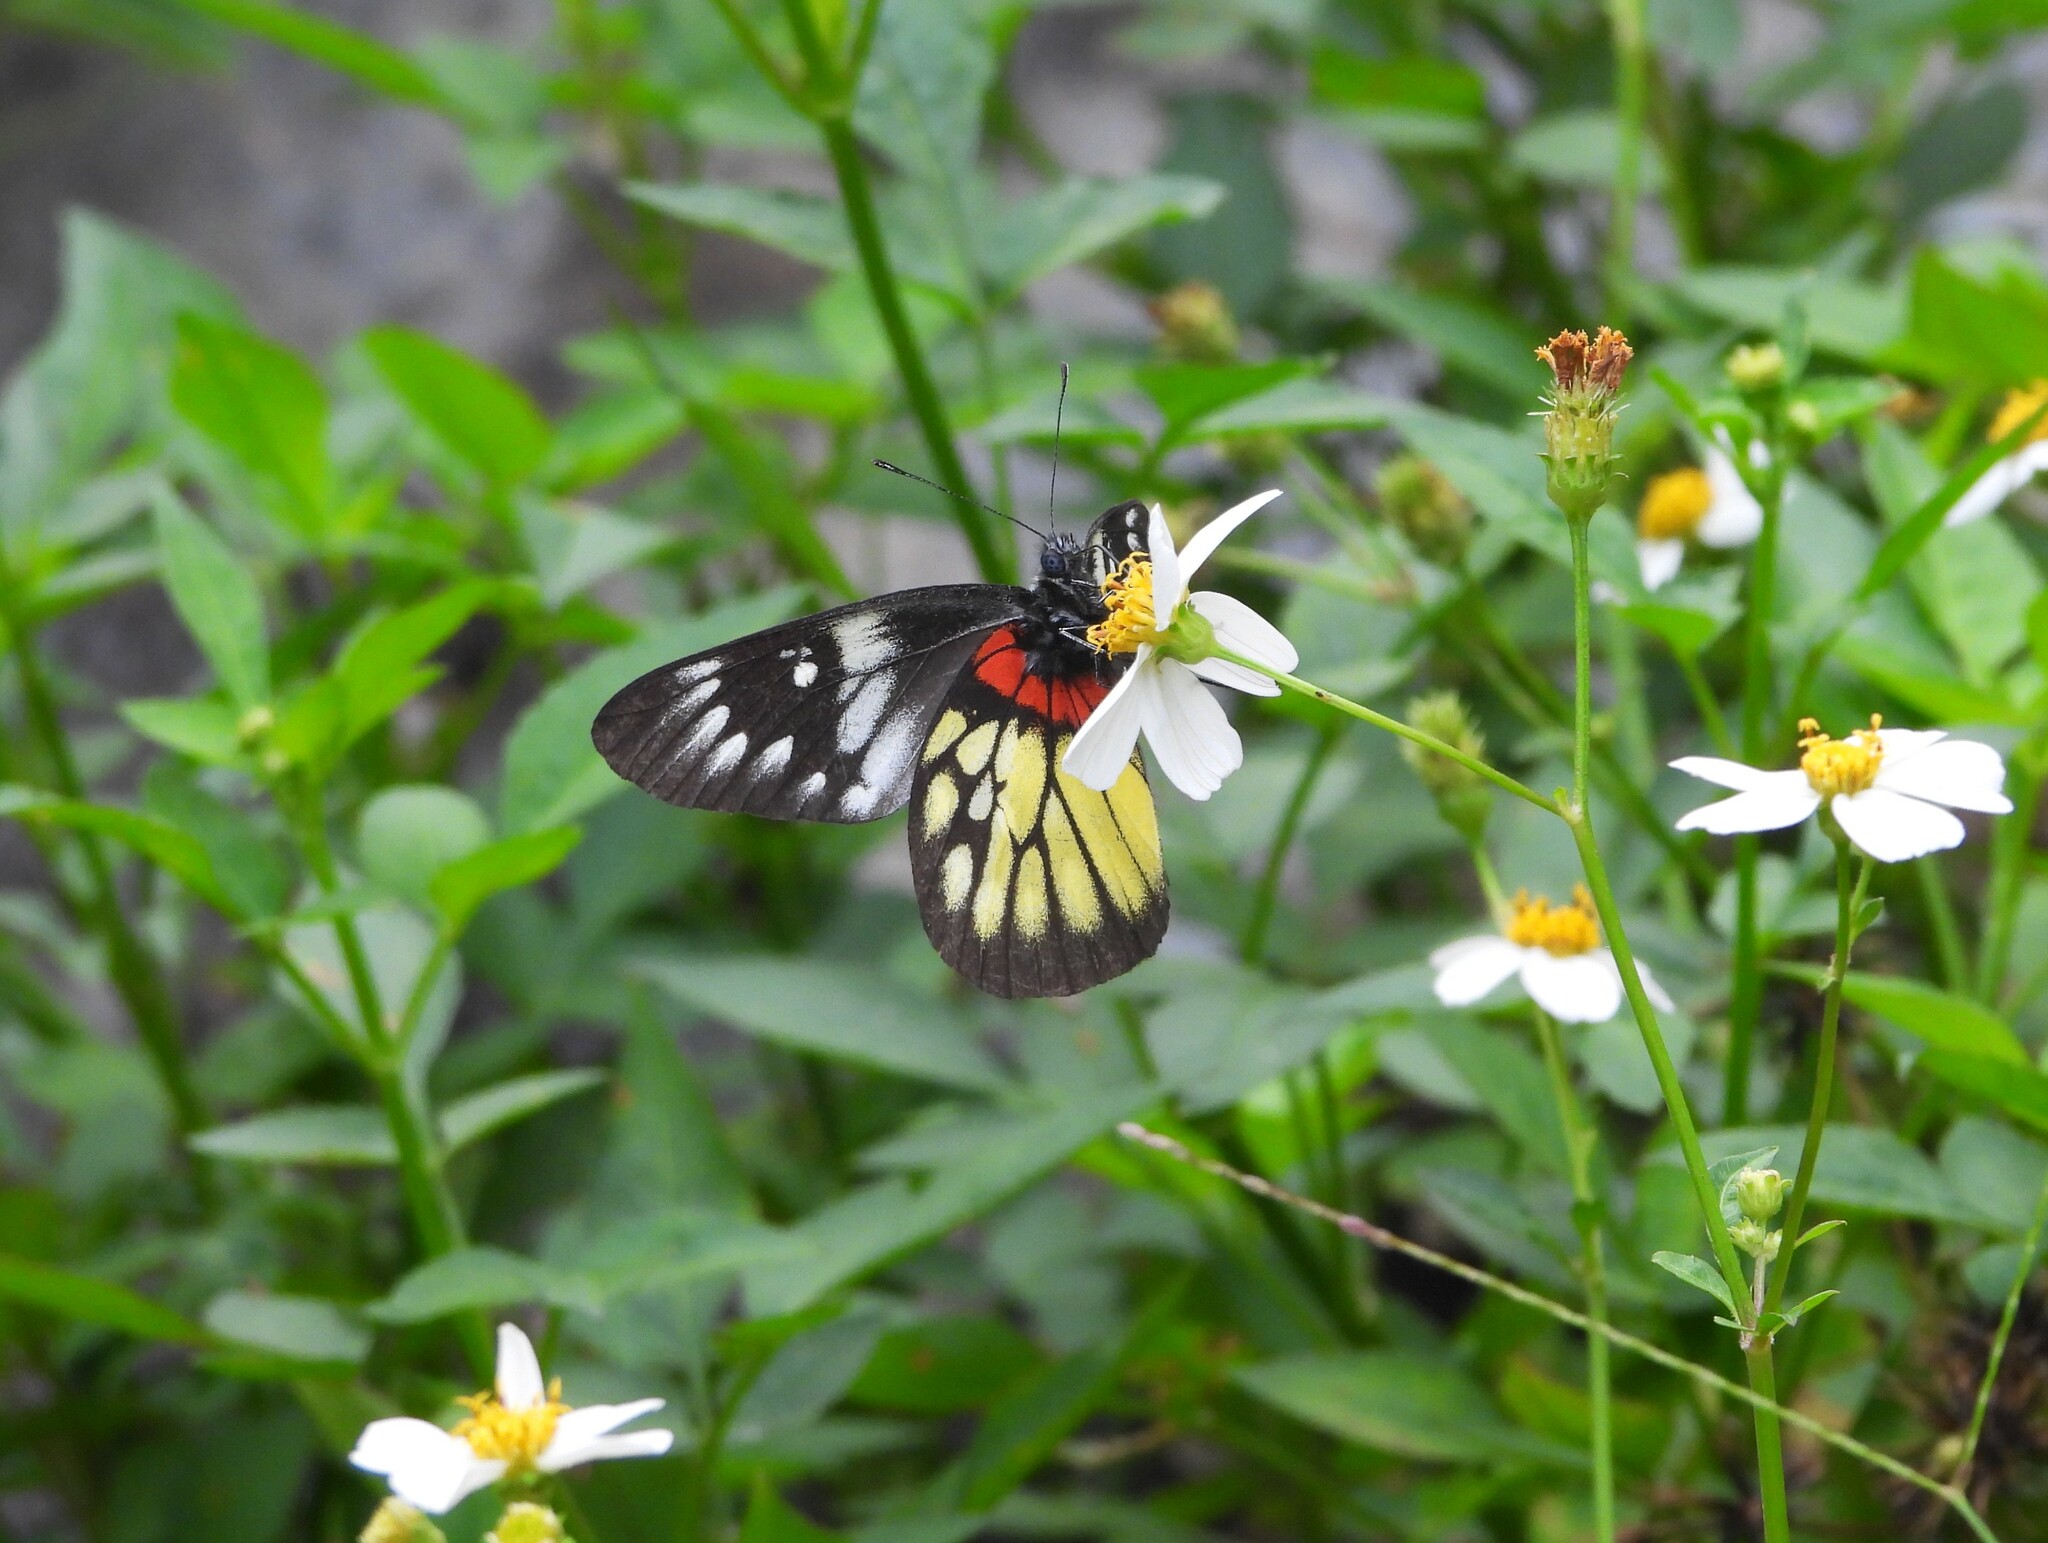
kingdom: Animalia
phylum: Arthropoda
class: Insecta
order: Lepidoptera
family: Pieridae
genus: Delias
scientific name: Delias pasithoe
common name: Red-base jezebel
